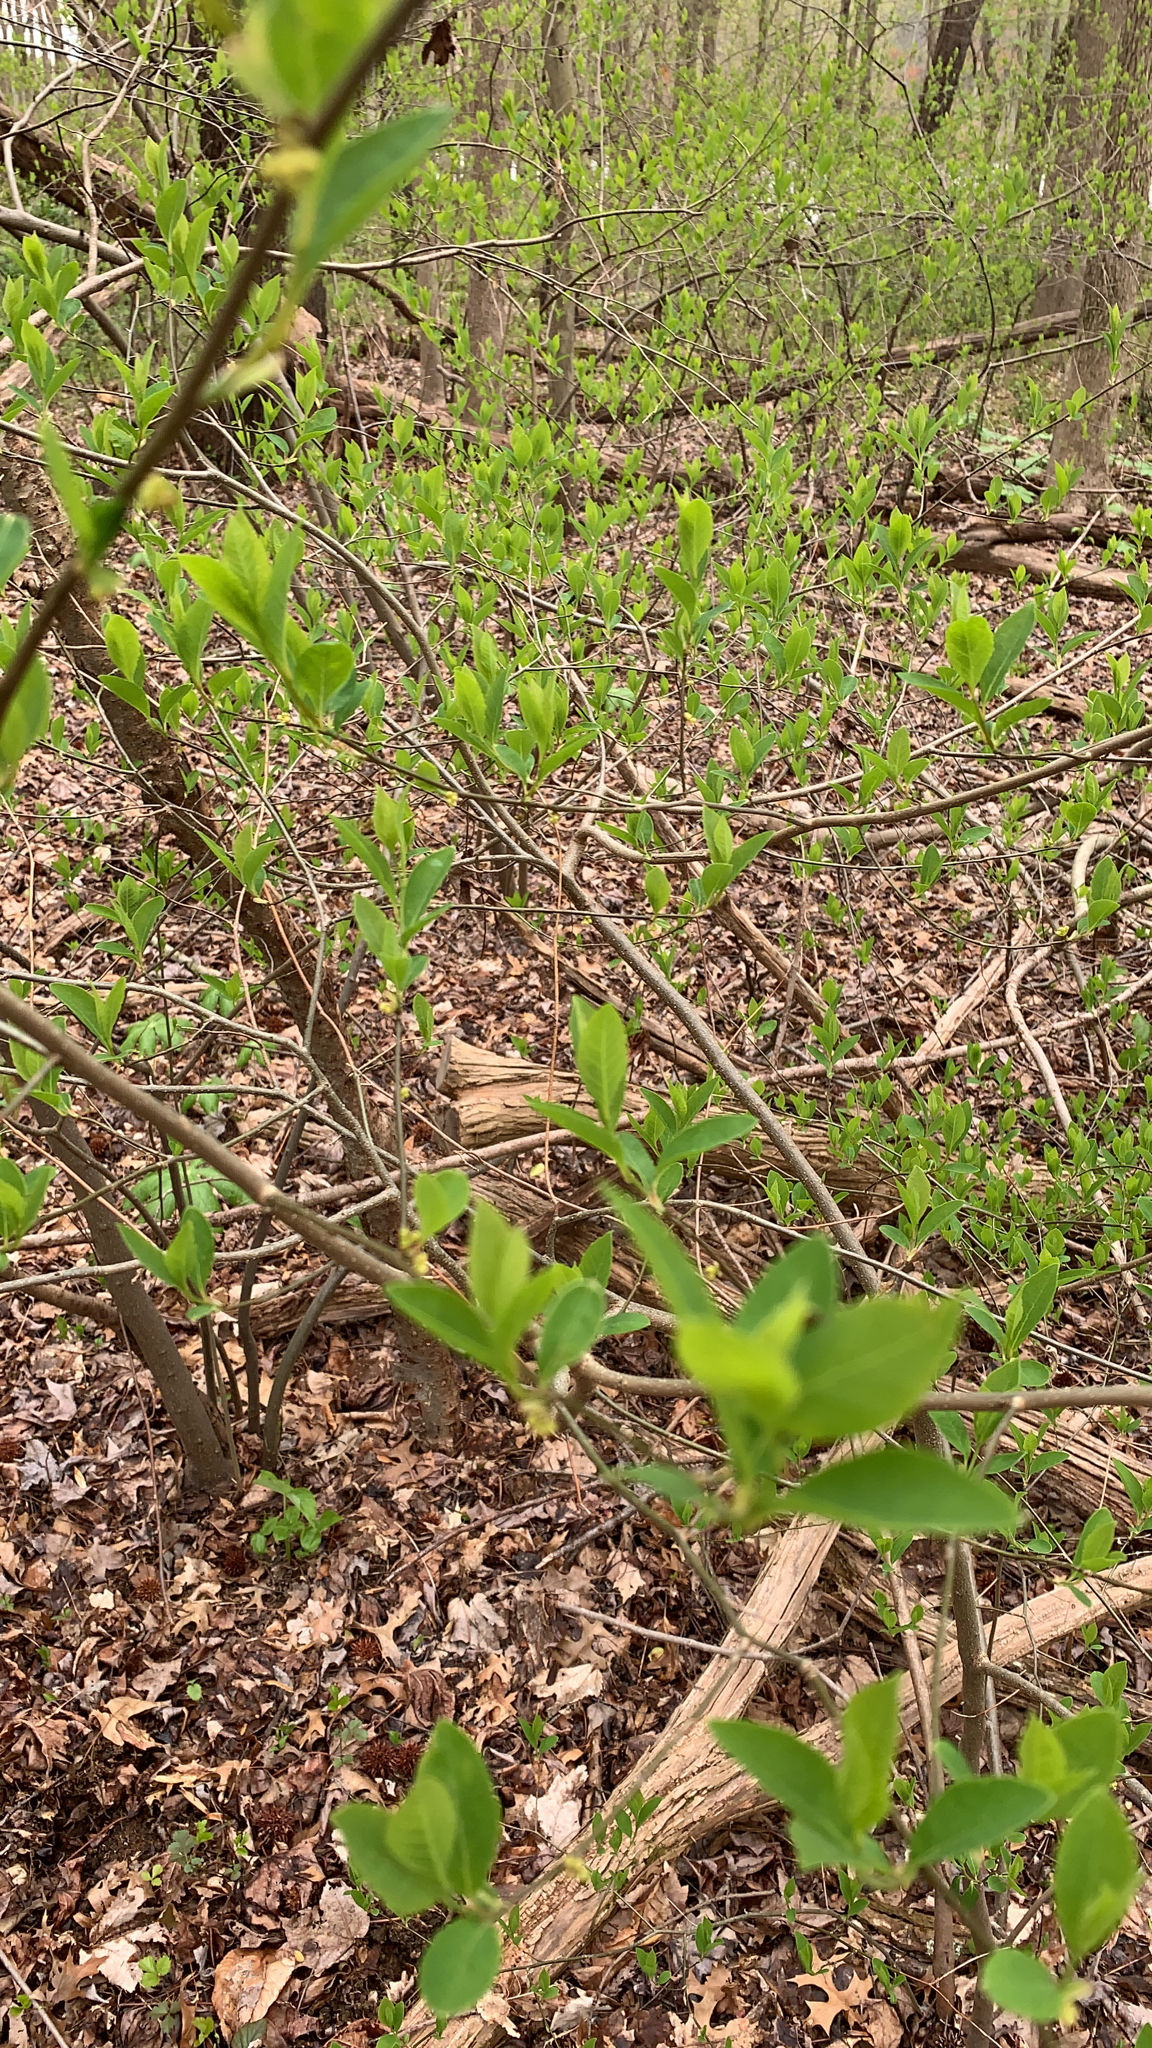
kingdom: Plantae
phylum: Tracheophyta
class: Magnoliopsida
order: Laurales
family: Lauraceae
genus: Lindera
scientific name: Lindera benzoin
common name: Spicebush
